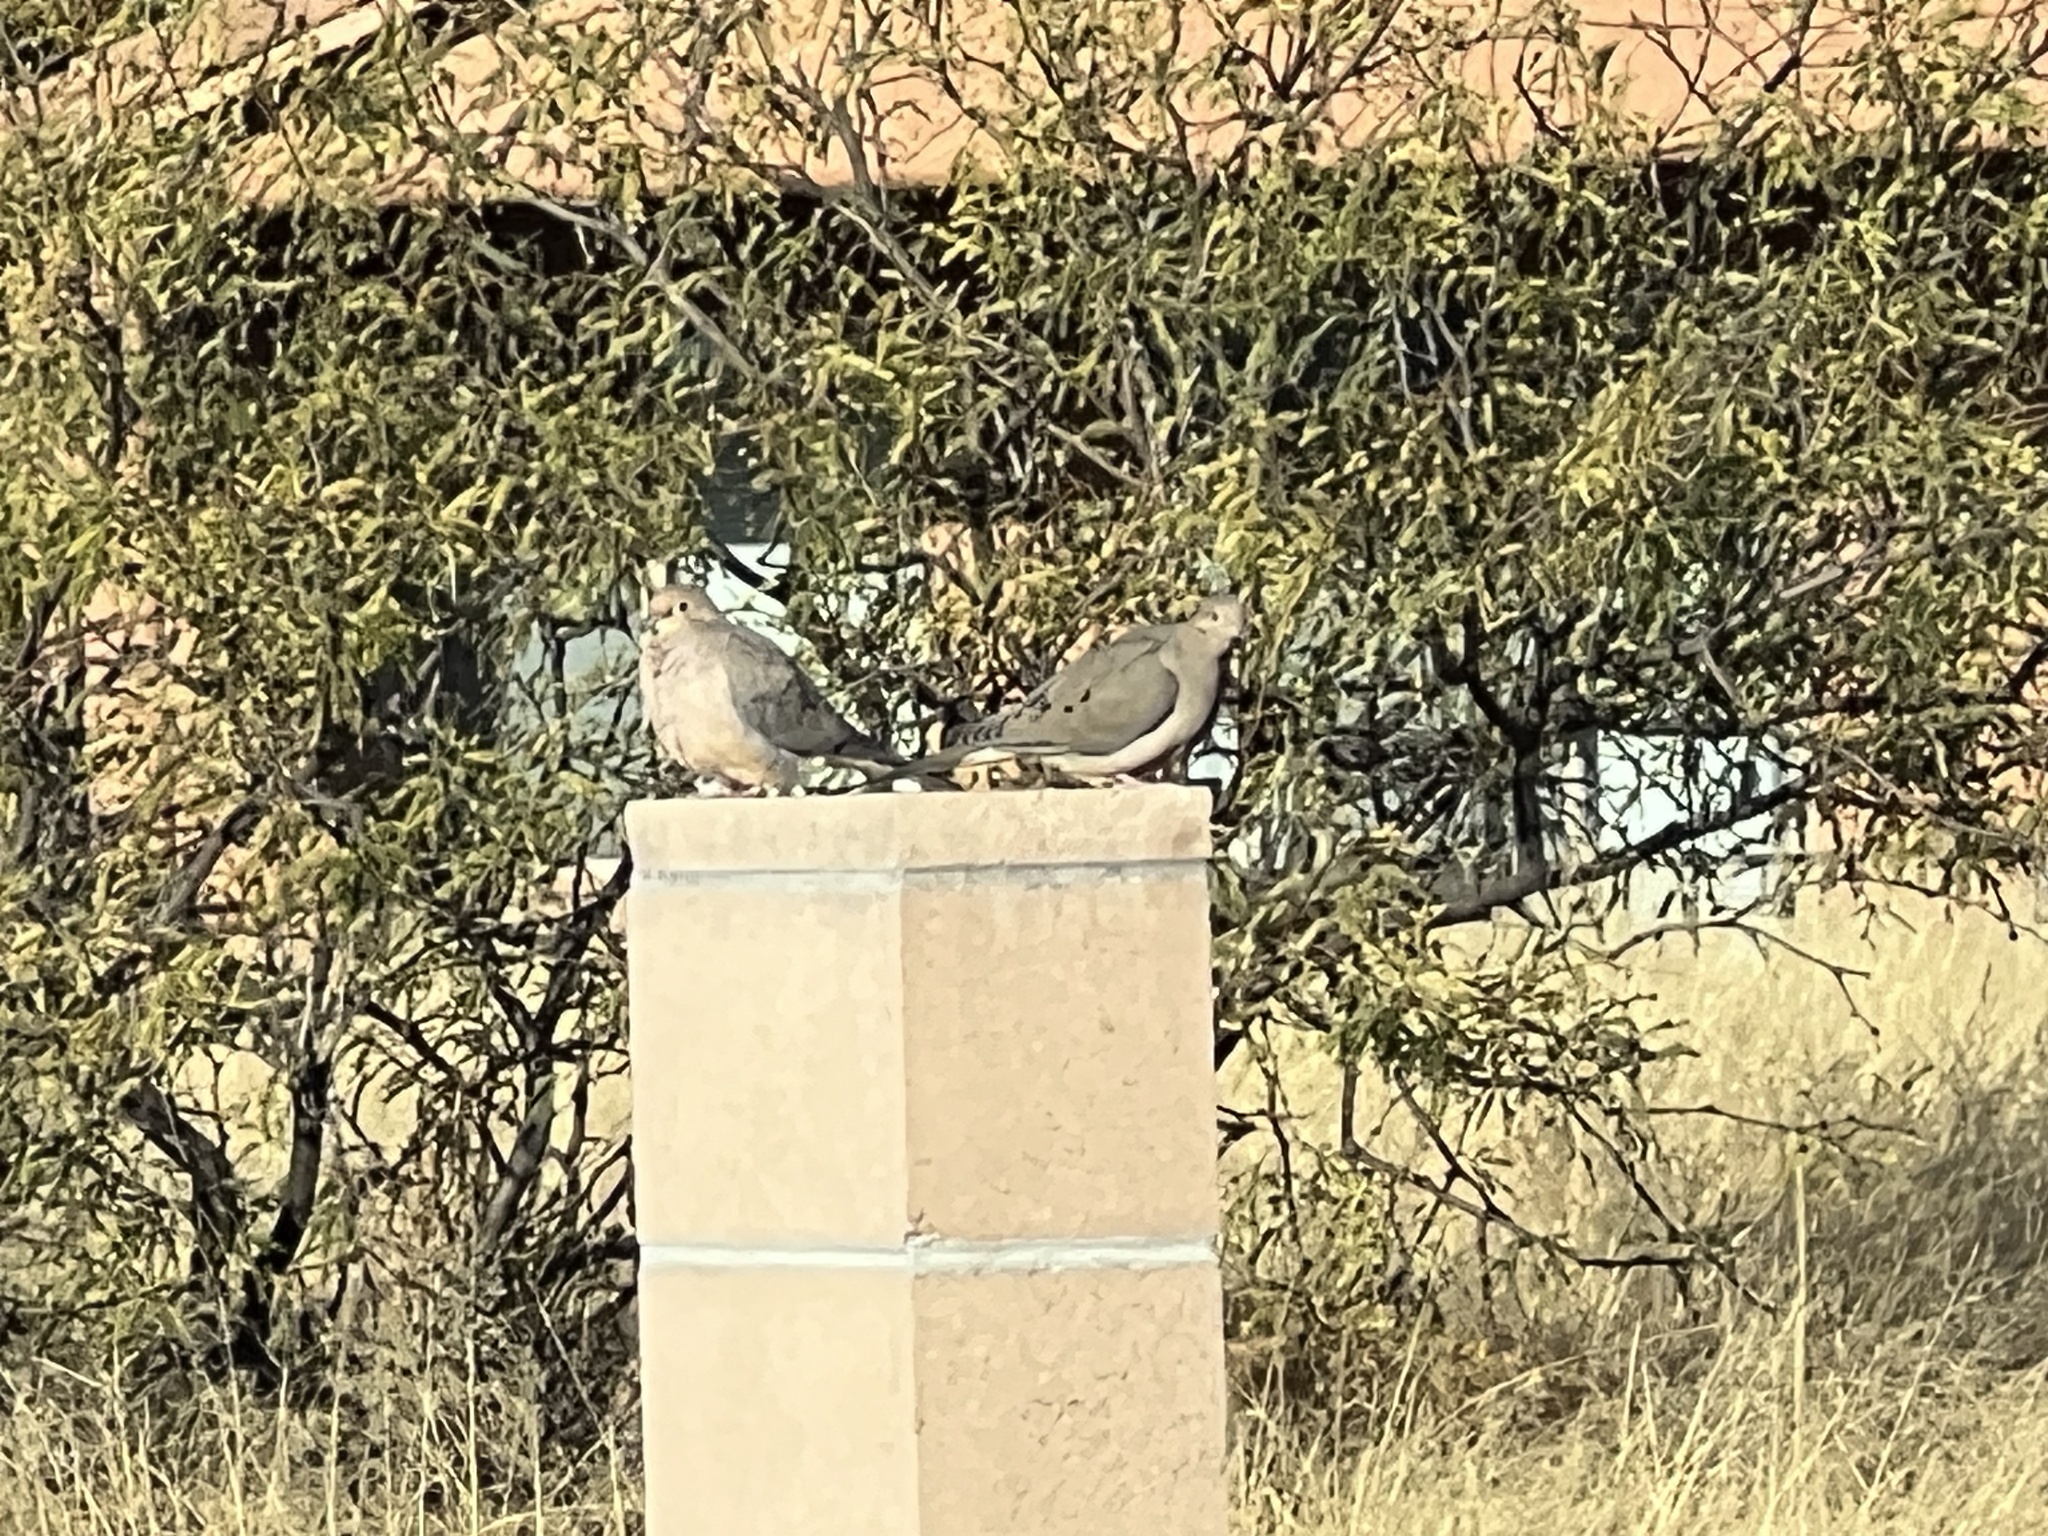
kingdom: Animalia
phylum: Chordata
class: Aves
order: Columbiformes
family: Columbidae
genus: Zenaida
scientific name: Zenaida macroura
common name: Mourning dove
